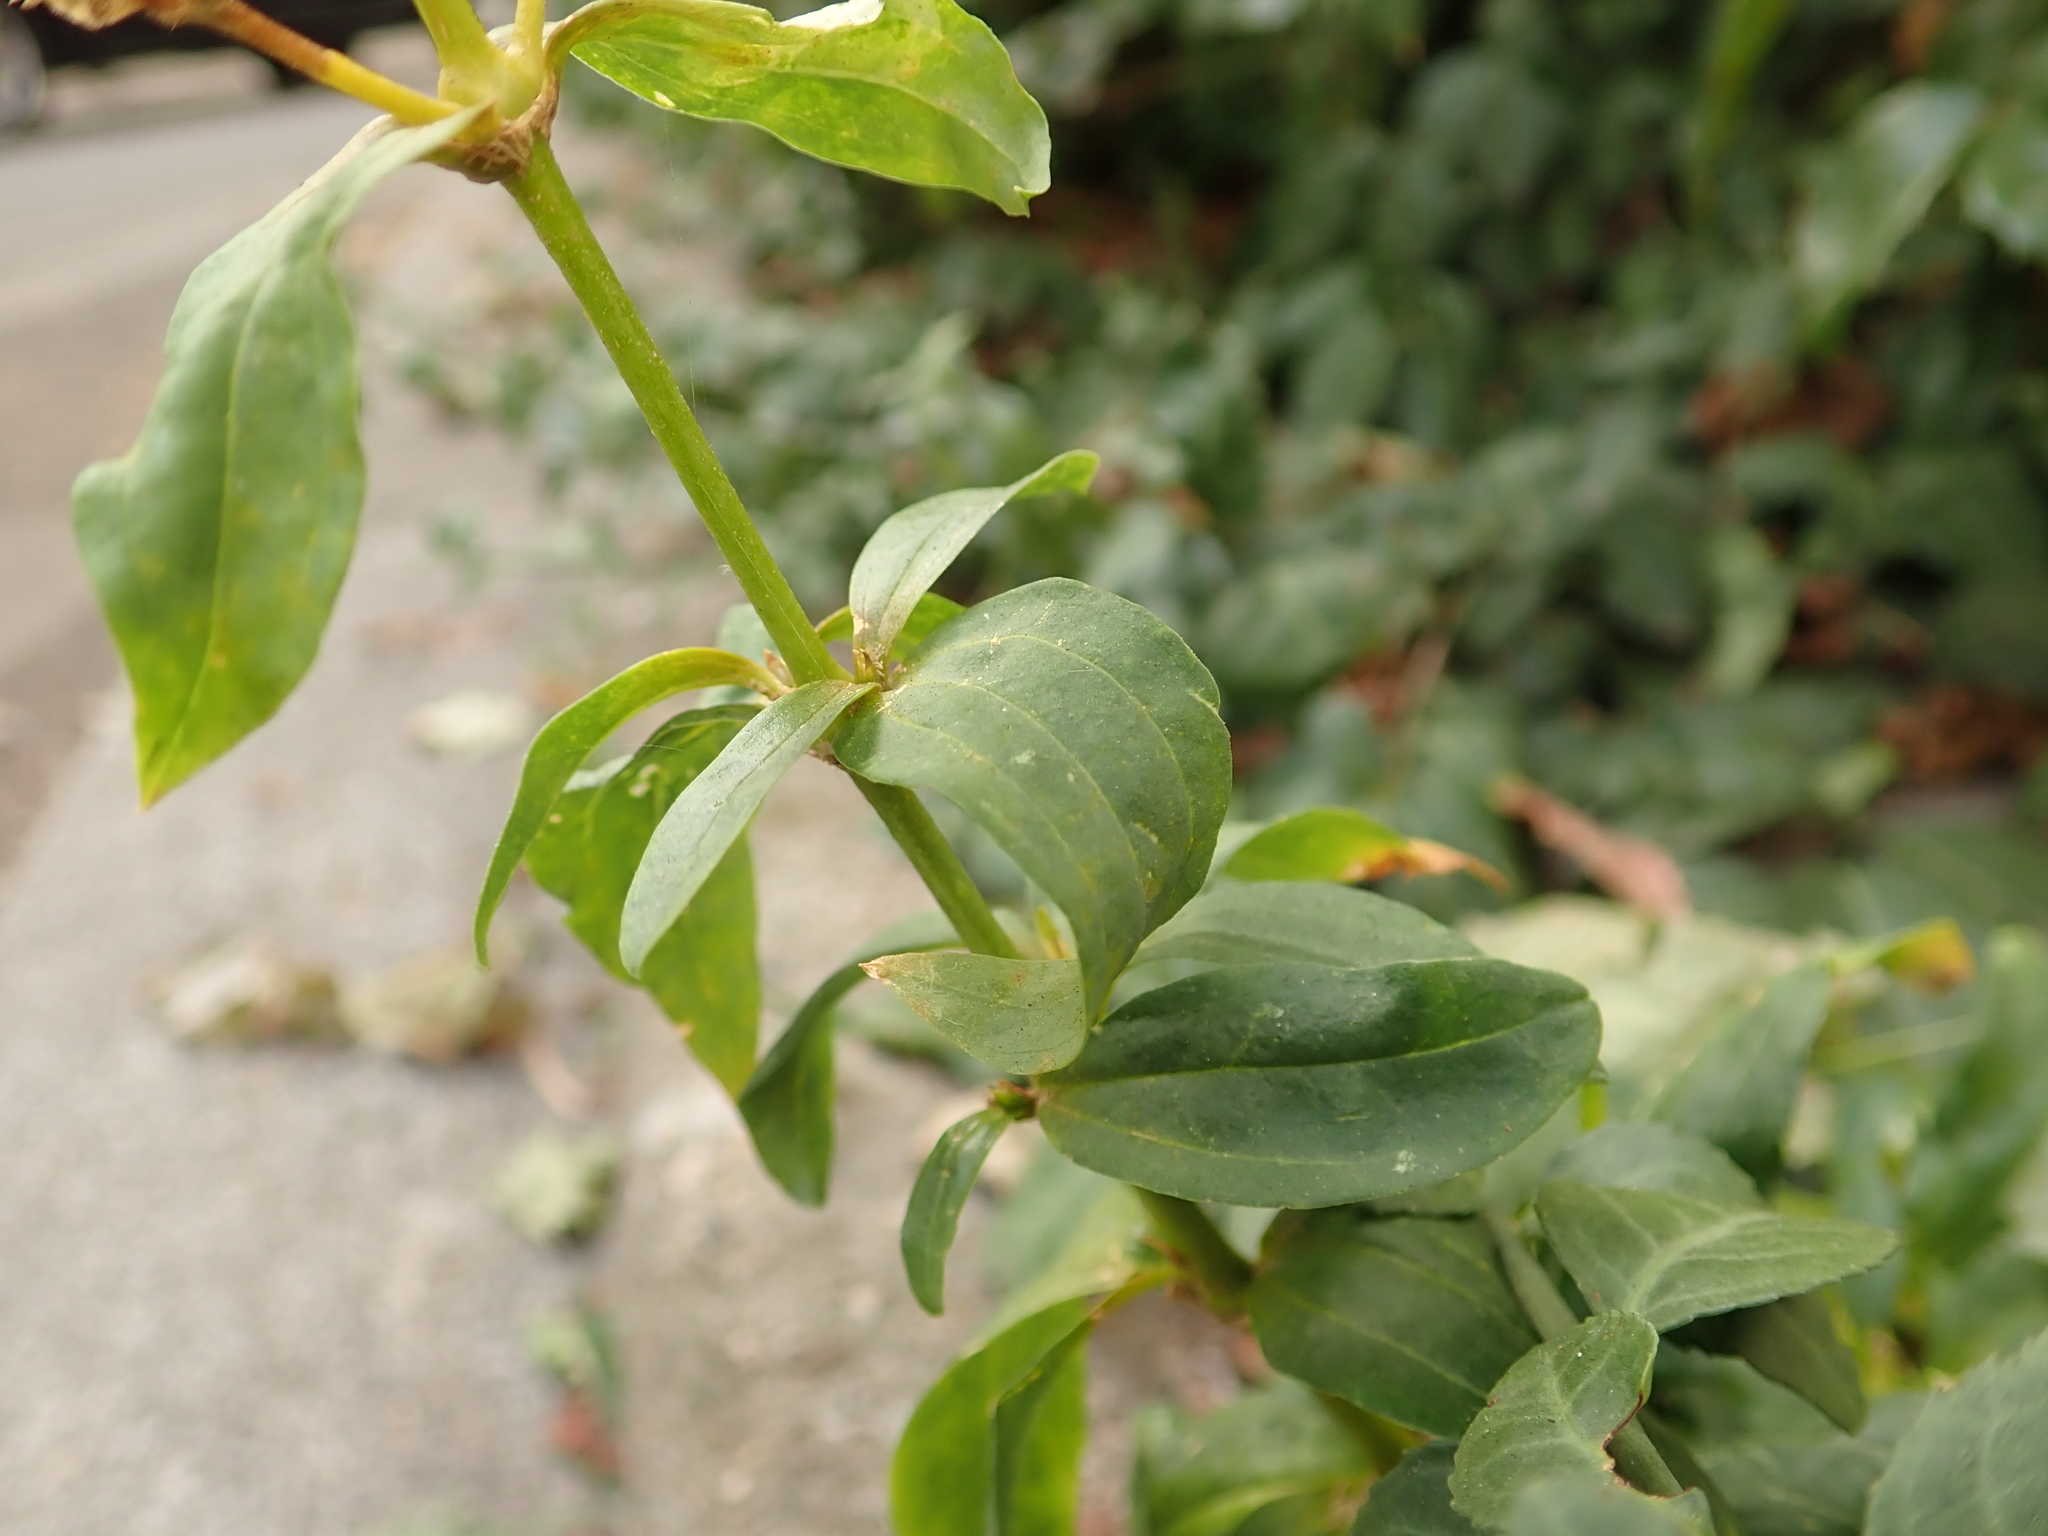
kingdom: Plantae
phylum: Tracheophyta
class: Magnoliopsida
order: Caryophyllales
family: Caryophyllaceae
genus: Saponaria
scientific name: Saponaria officinalis
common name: Soapwort
